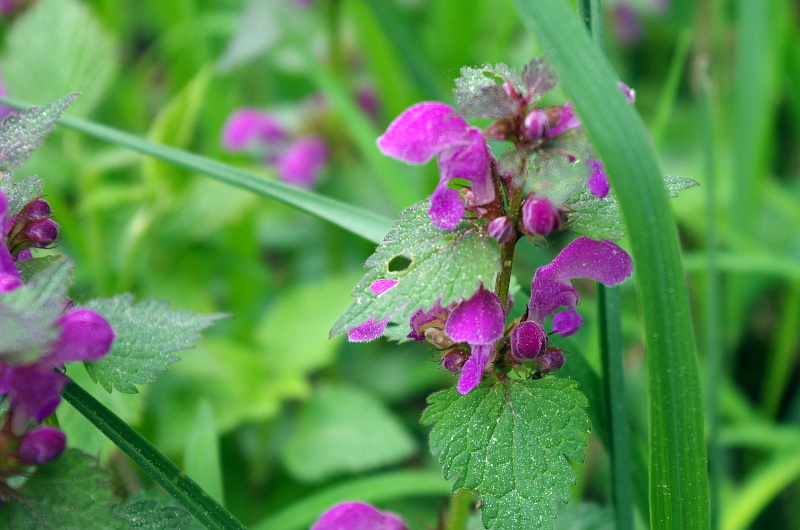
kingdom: Plantae
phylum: Tracheophyta
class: Magnoliopsida
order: Lamiales
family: Lamiaceae
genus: Lamium
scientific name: Lamium maculatum
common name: Spotted dead-nettle
